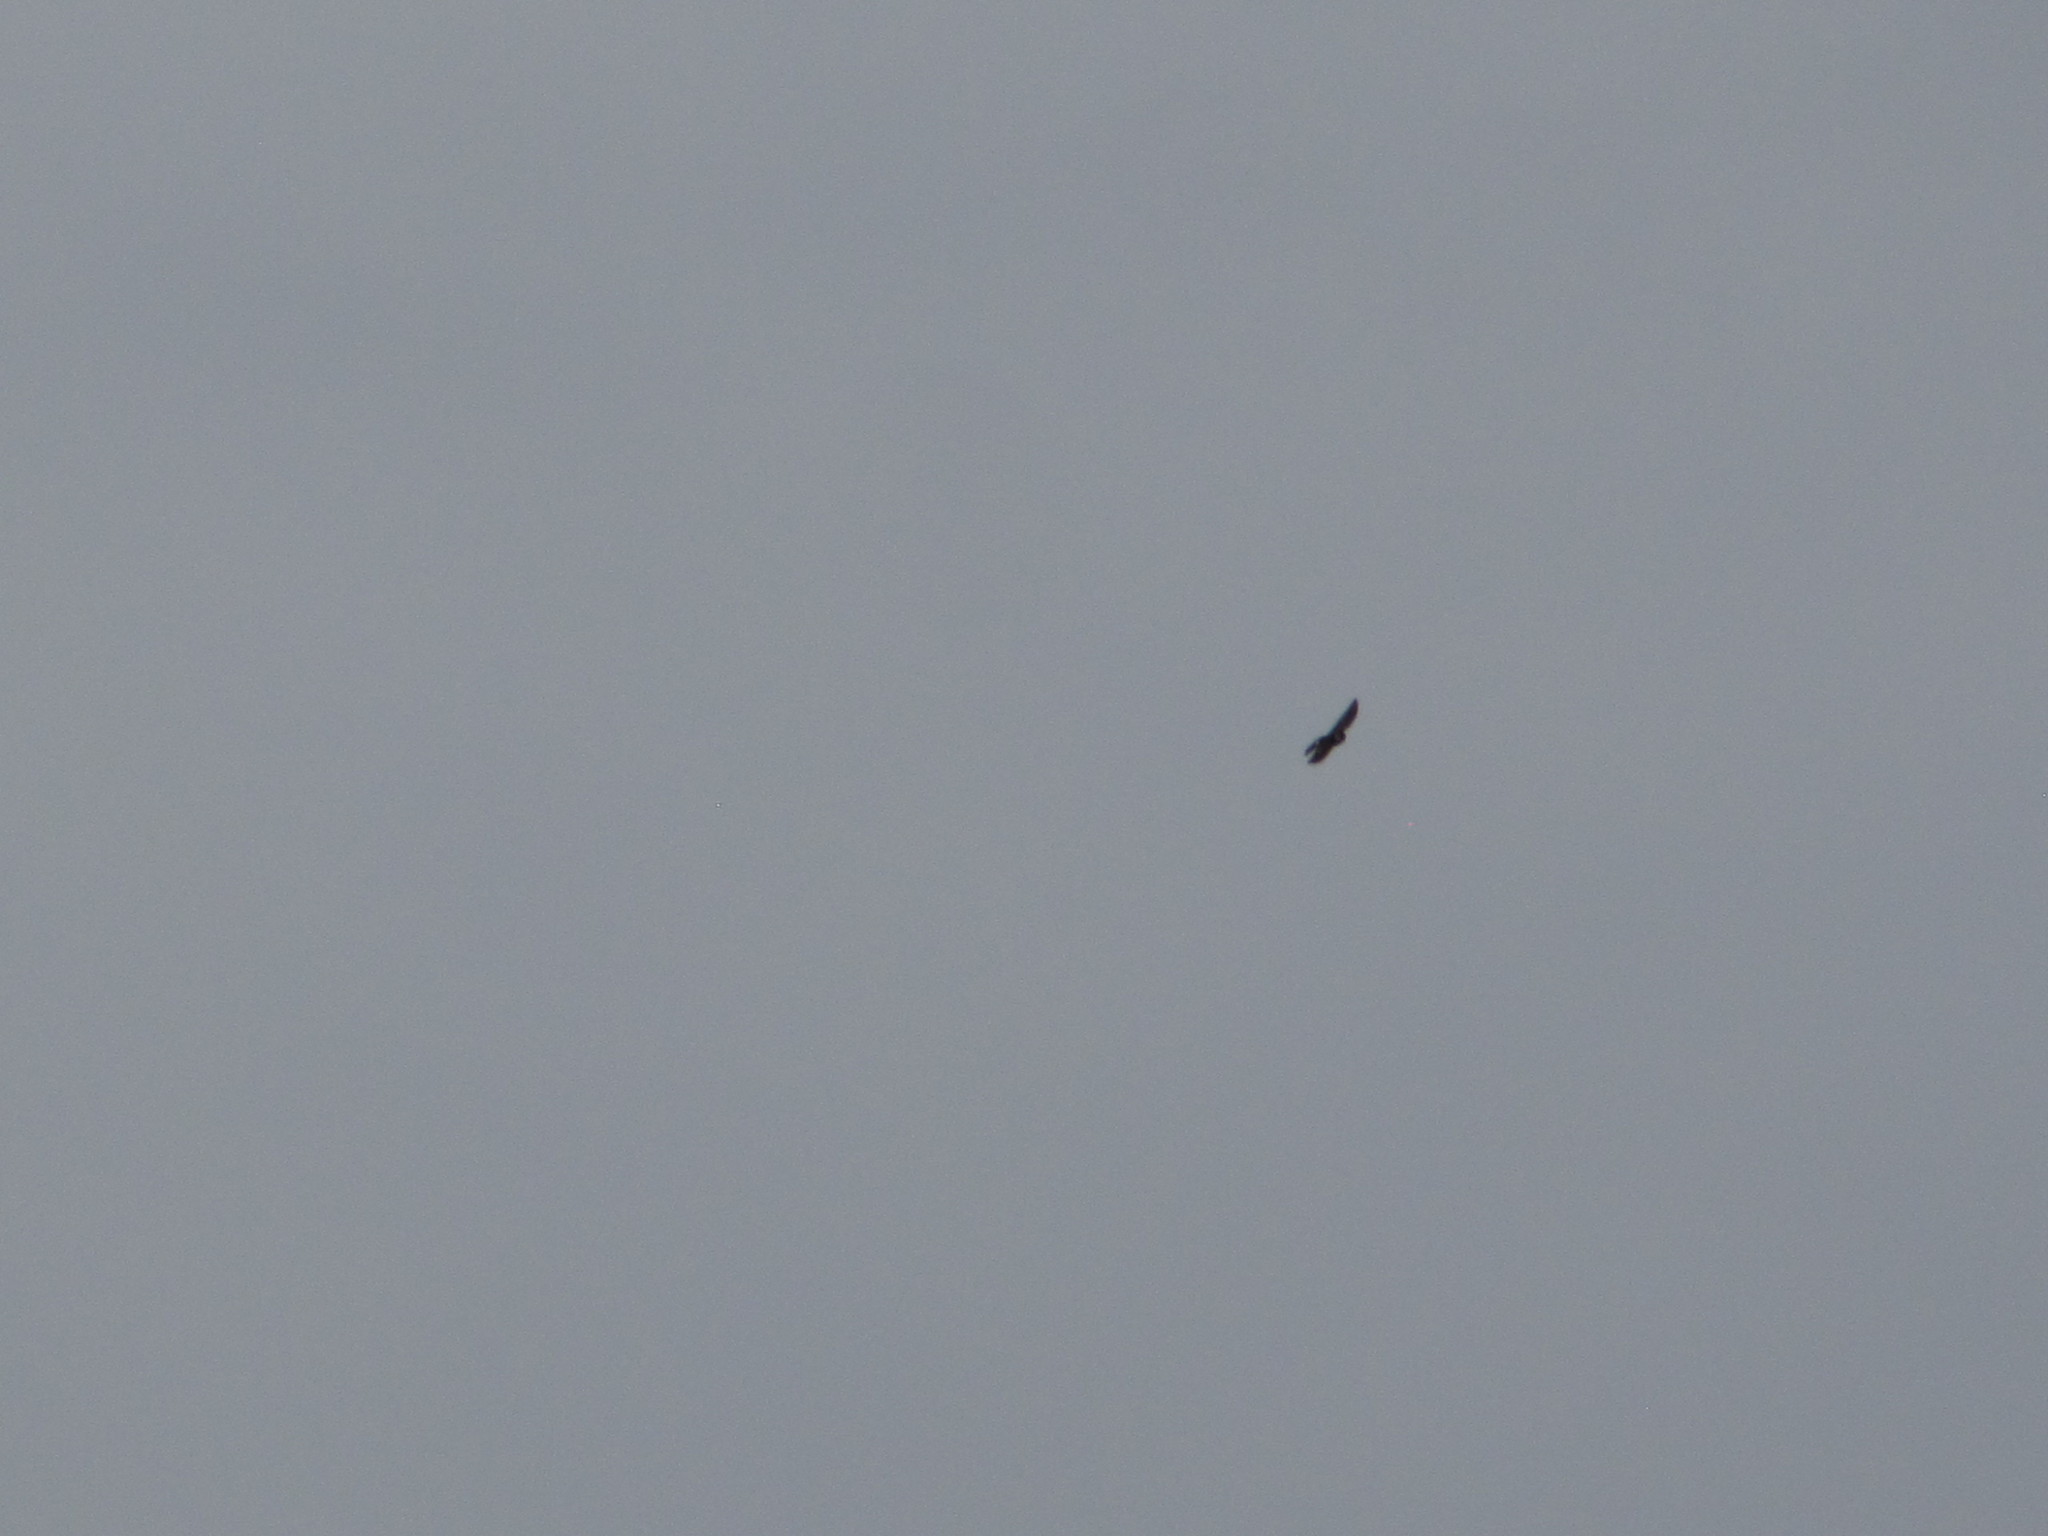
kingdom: Animalia
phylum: Chordata
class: Aves
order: Passeriformes
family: Hirundinidae
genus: Tachycineta
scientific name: Tachycineta thalassina
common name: Violet-green swallow
